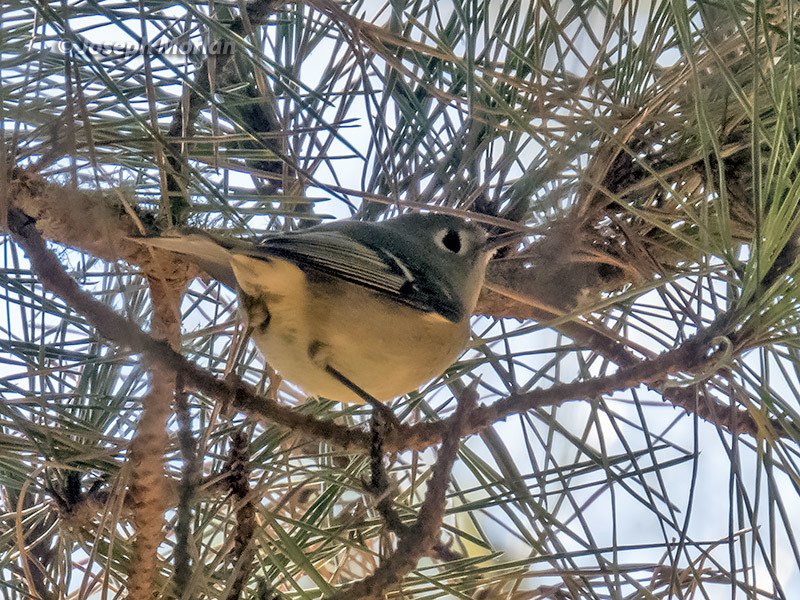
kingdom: Animalia
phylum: Chordata
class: Aves
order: Passeriformes
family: Regulidae
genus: Regulus
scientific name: Regulus calendula
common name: Ruby-crowned kinglet
